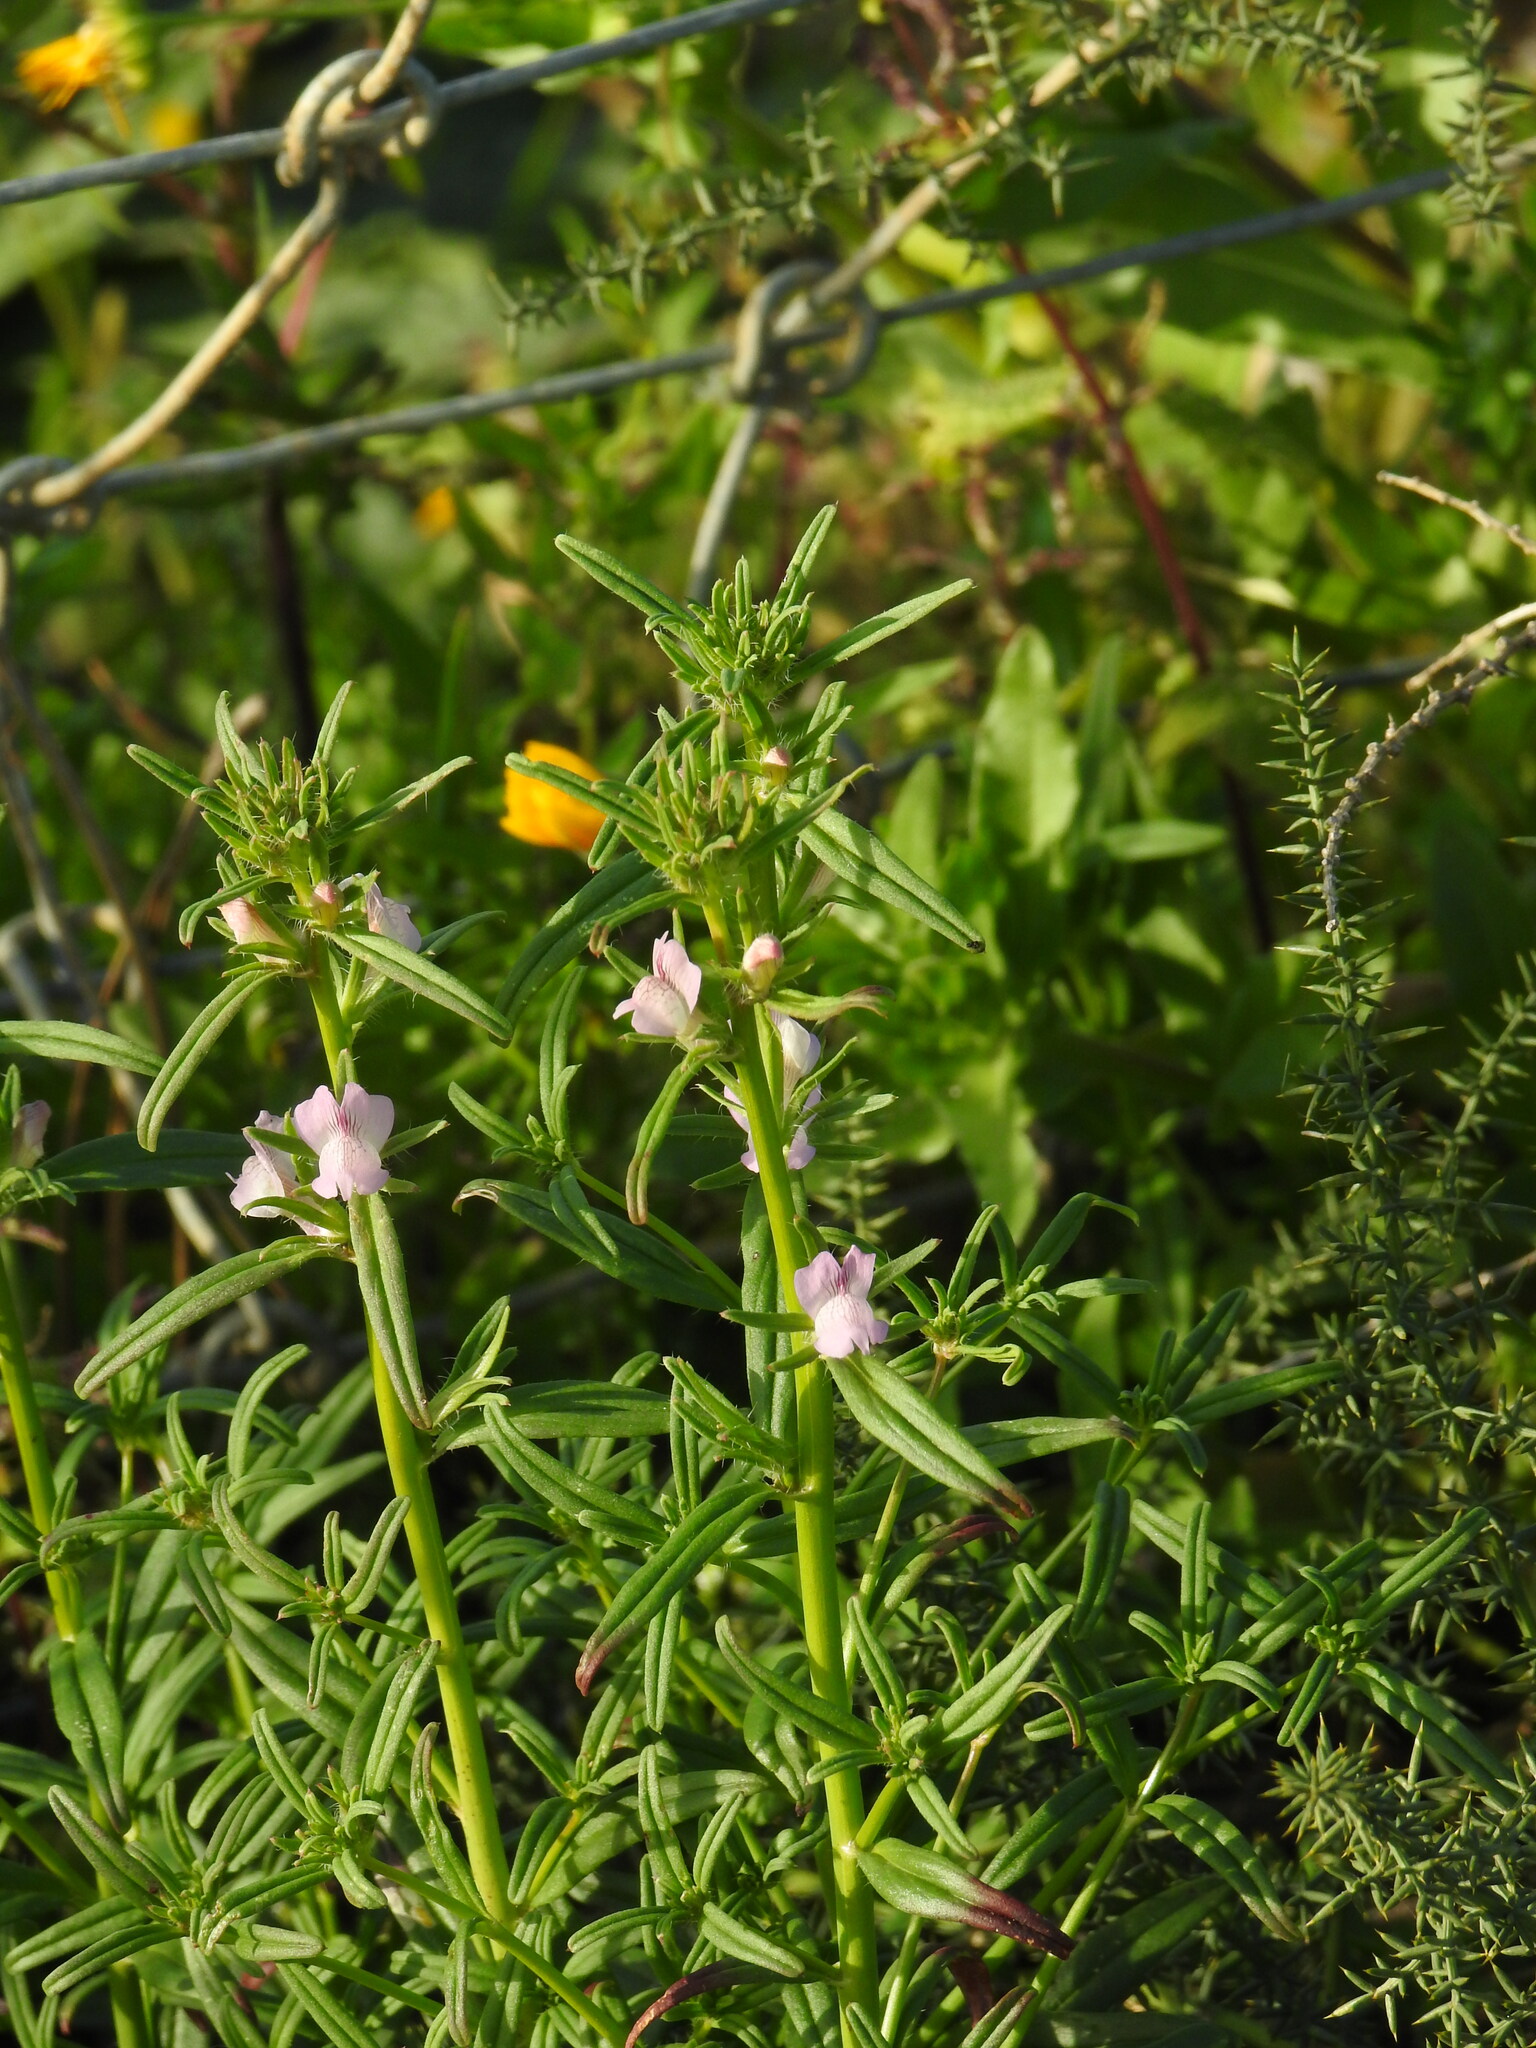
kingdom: Plantae
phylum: Tracheophyta
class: Magnoliopsida
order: Lamiales
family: Plantaginaceae
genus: Misopates
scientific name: Misopates calycinum
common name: Pale weasel's-snout
